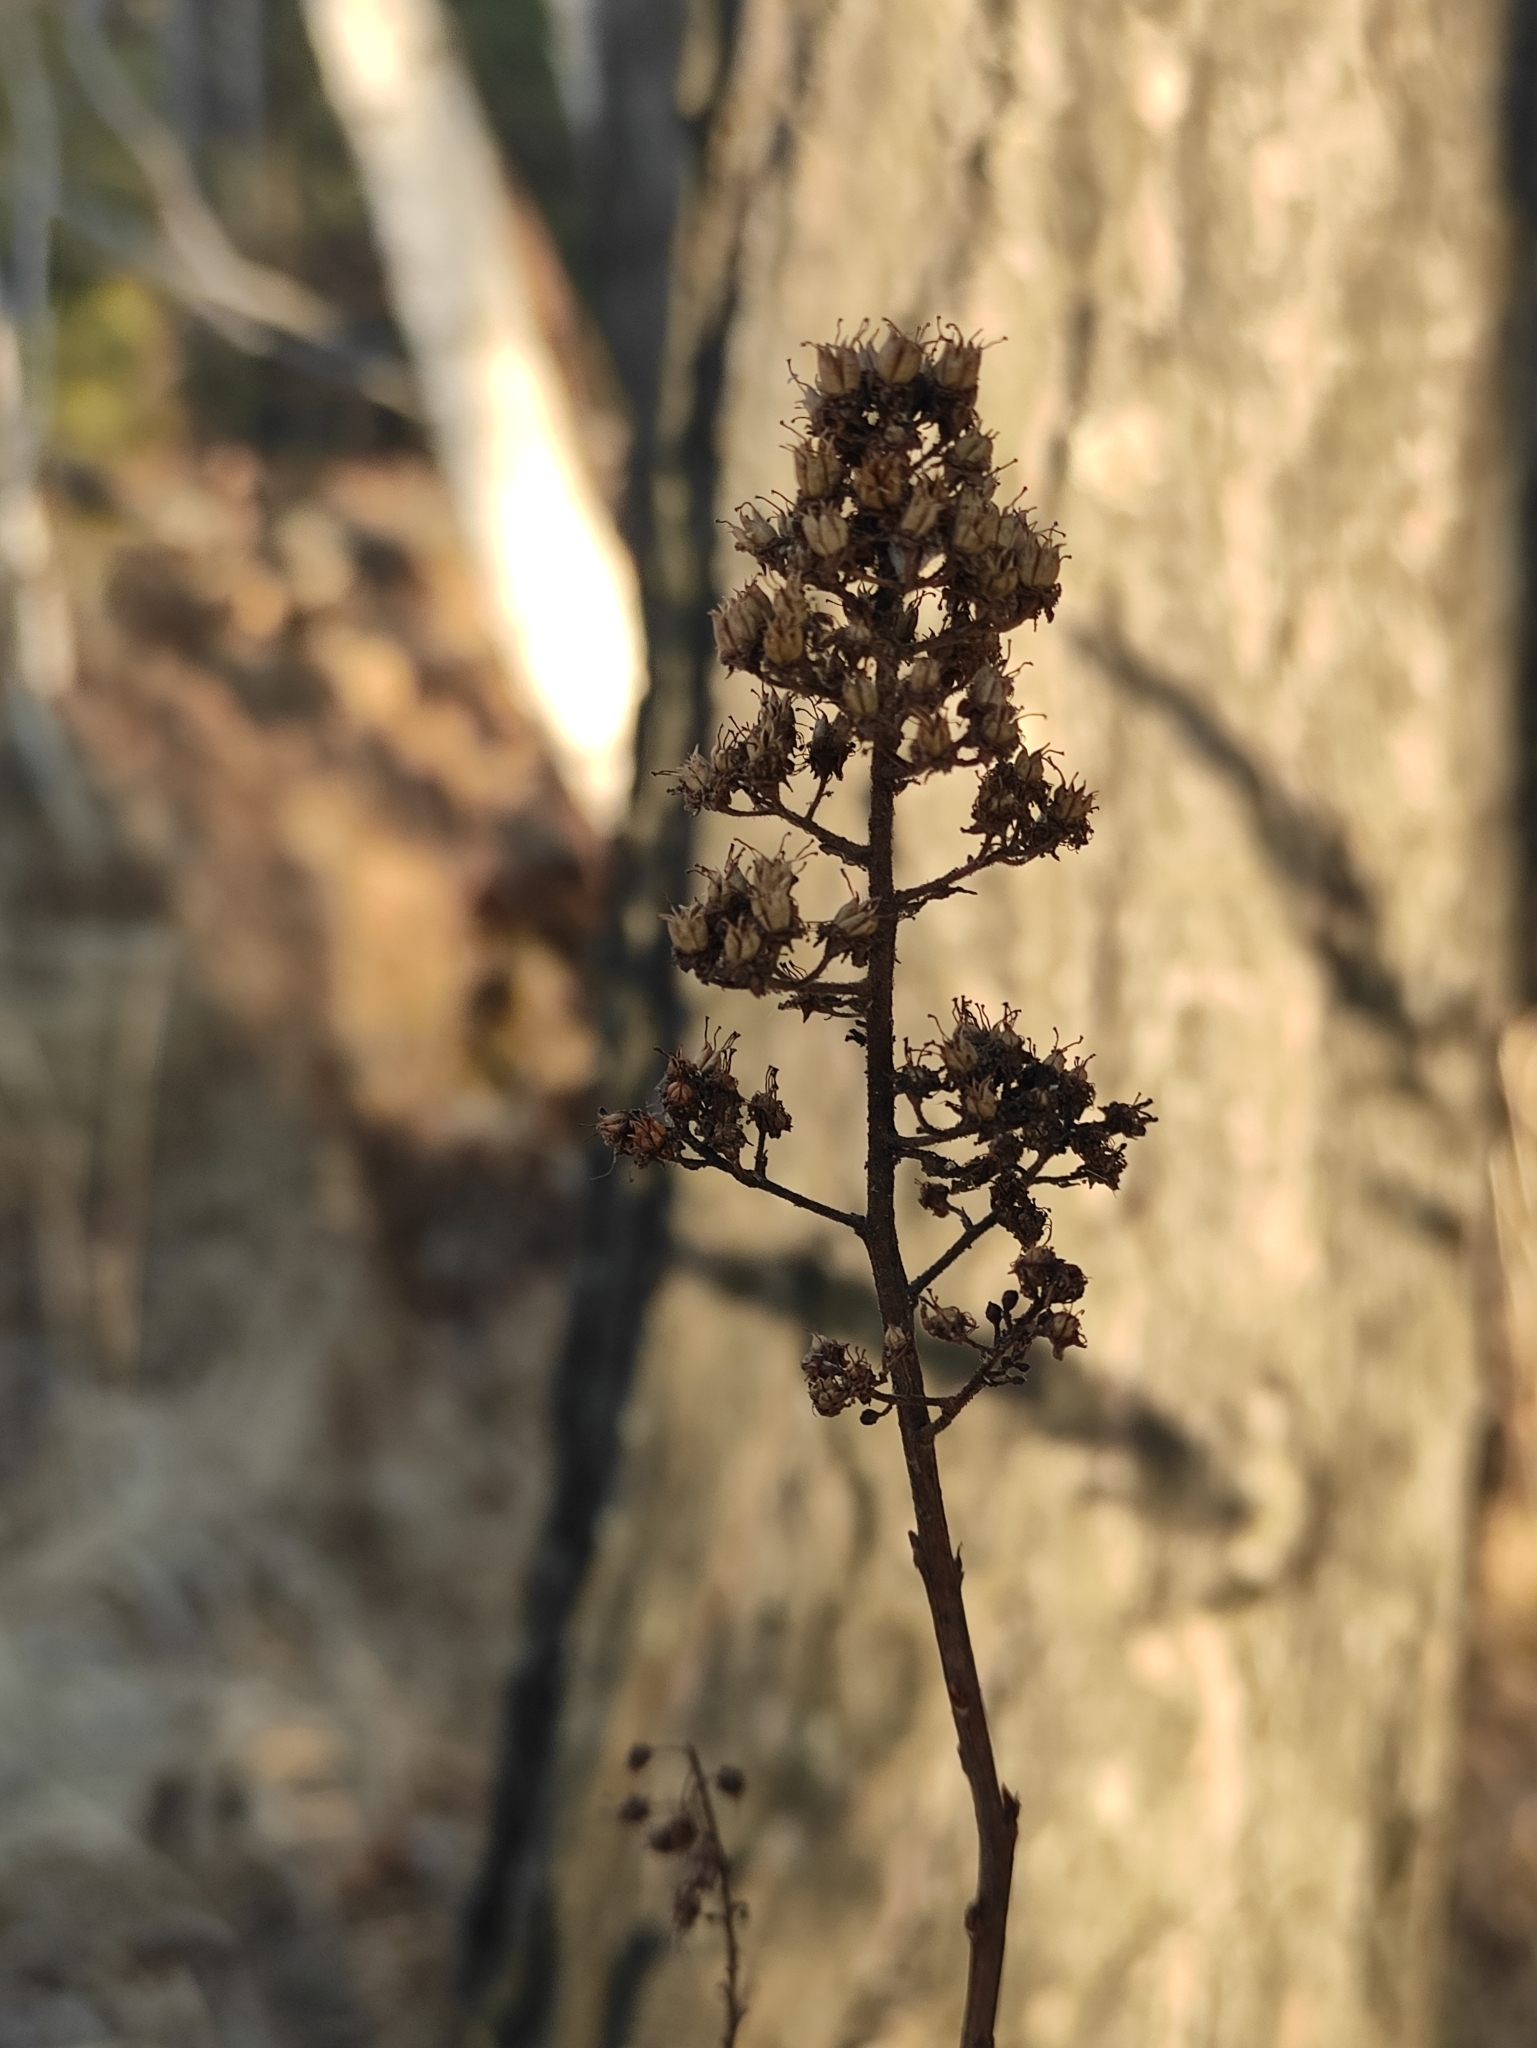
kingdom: Plantae
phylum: Tracheophyta
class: Magnoliopsida
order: Rosales
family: Rosaceae
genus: Spiraea
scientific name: Spiraea salicifolia
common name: Bridewort
